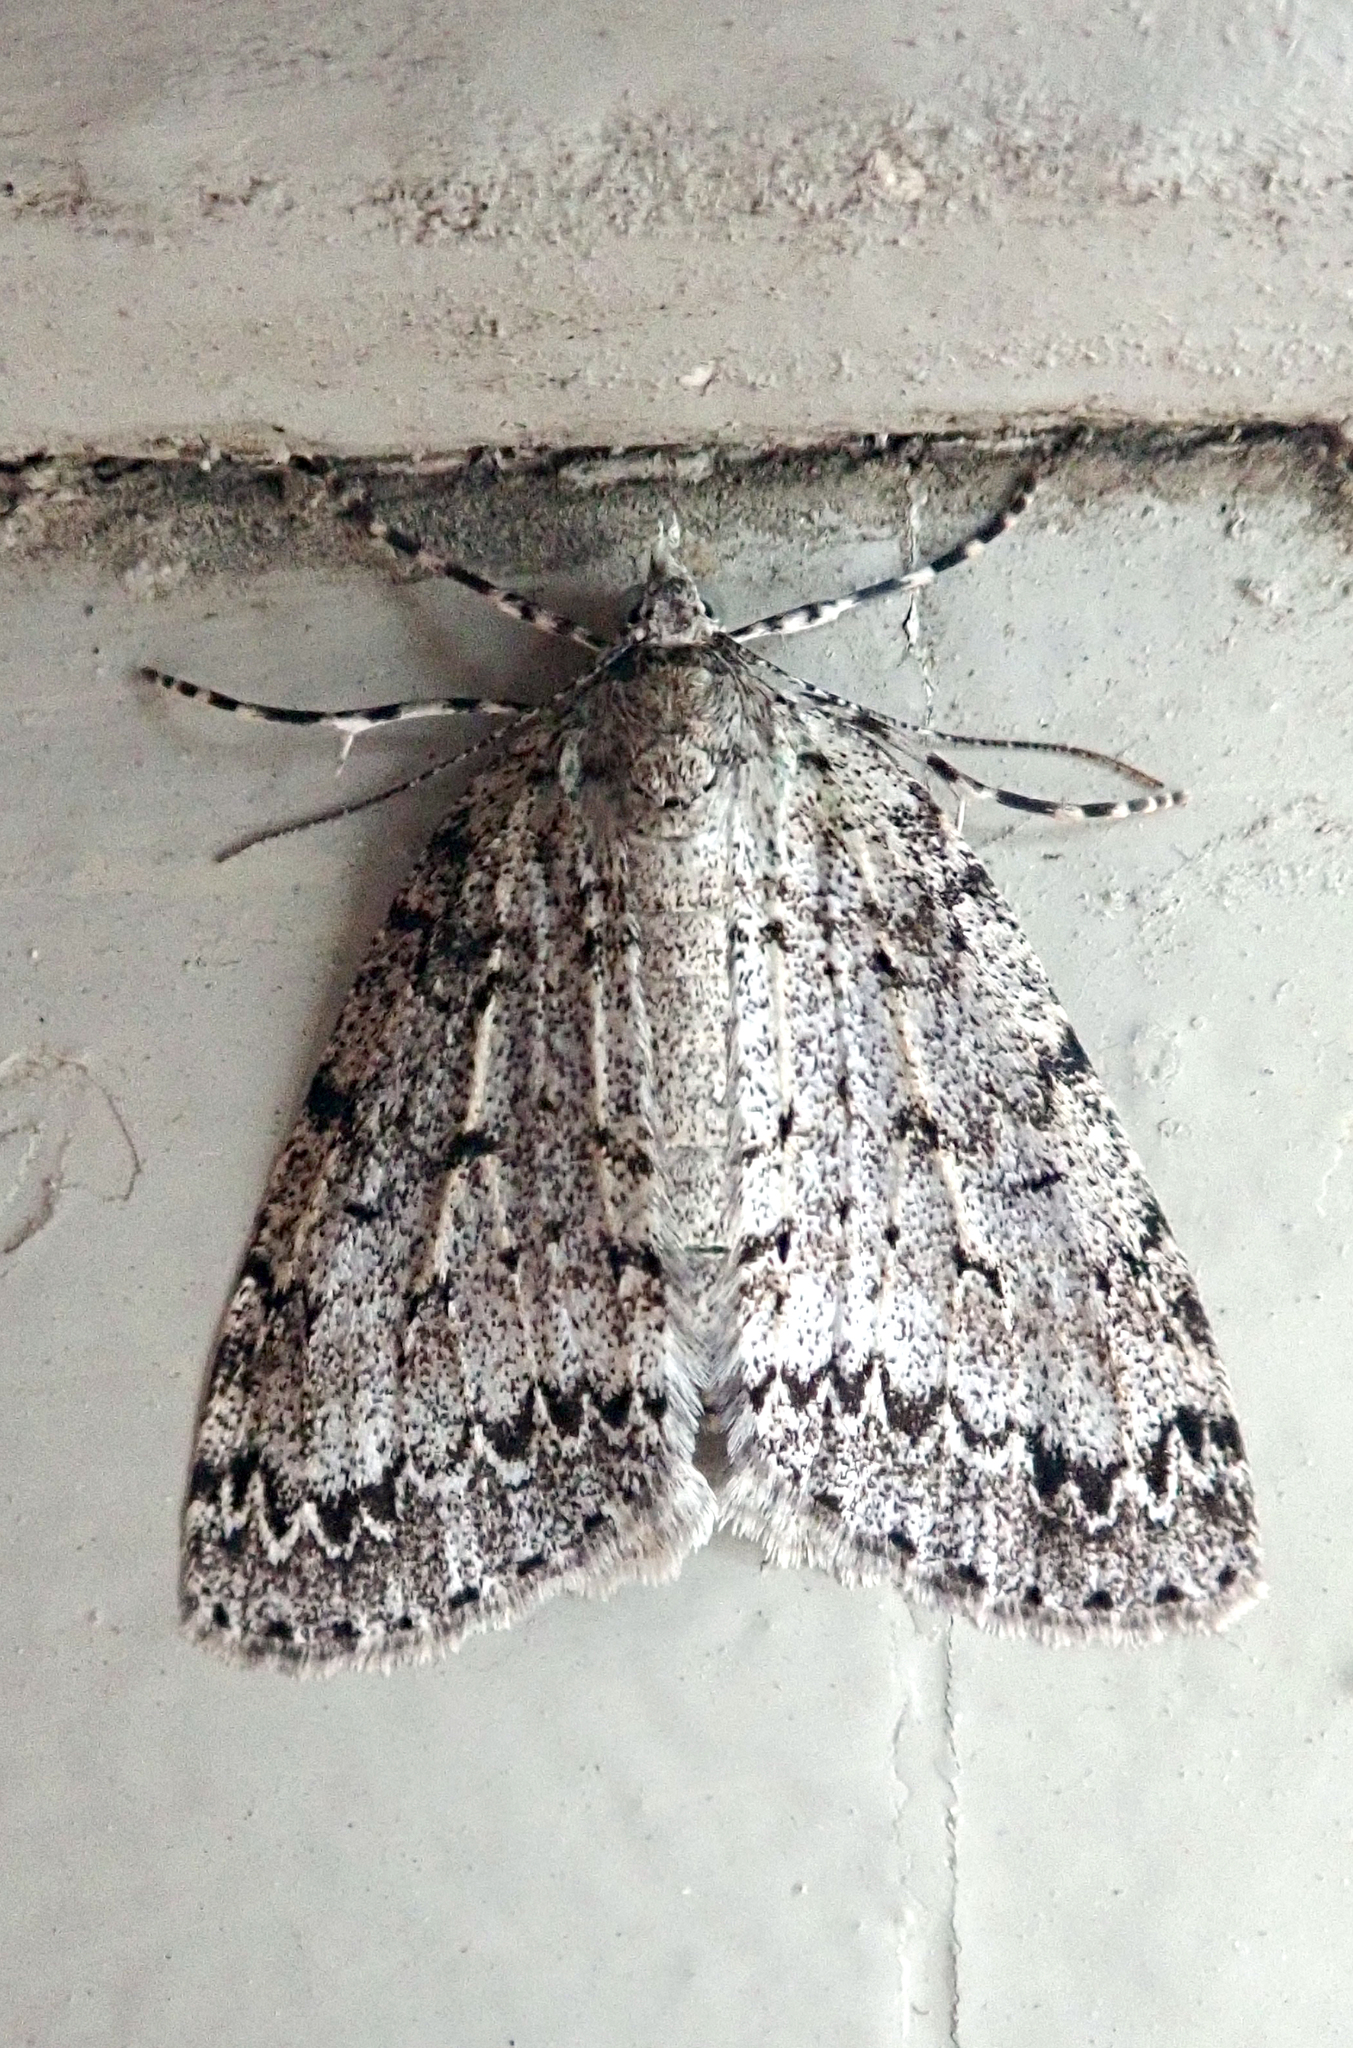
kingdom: Animalia
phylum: Arthropoda
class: Insecta
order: Lepidoptera
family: Geometridae
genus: Pseudocoremia
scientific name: Pseudocoremia fenerata
